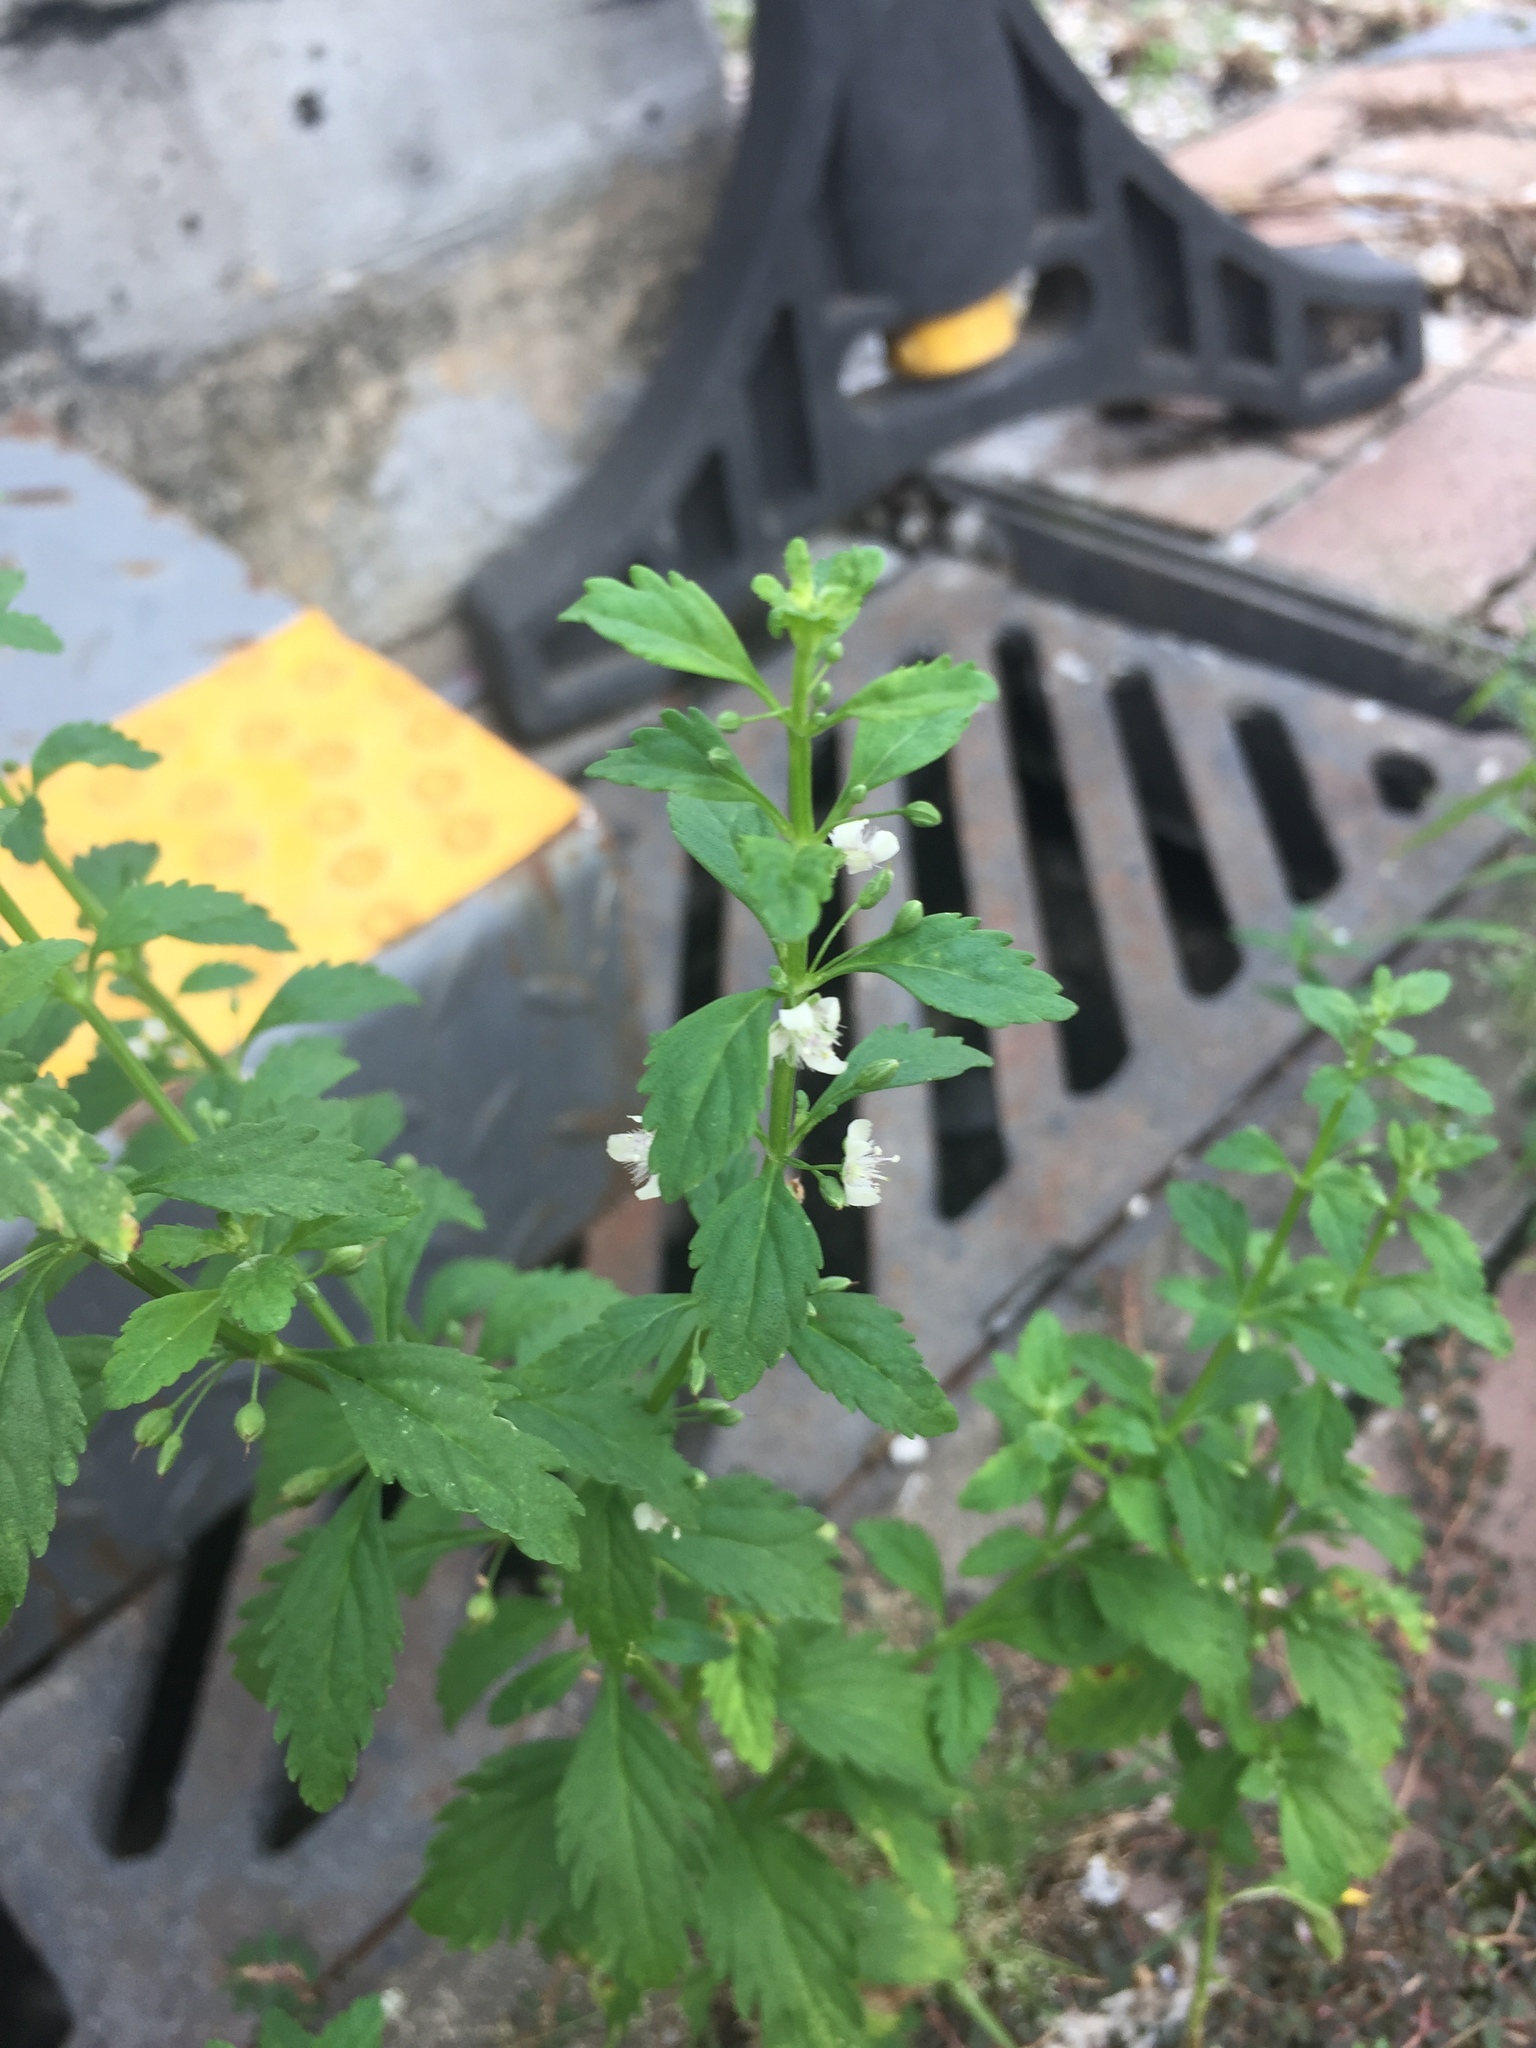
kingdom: Plantae
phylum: Tracheophyta
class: Magnoliopsida
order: Lamiales
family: Plantaginaceae
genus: Scoparia
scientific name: Scoparia dulcis
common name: Scoparia-weed
